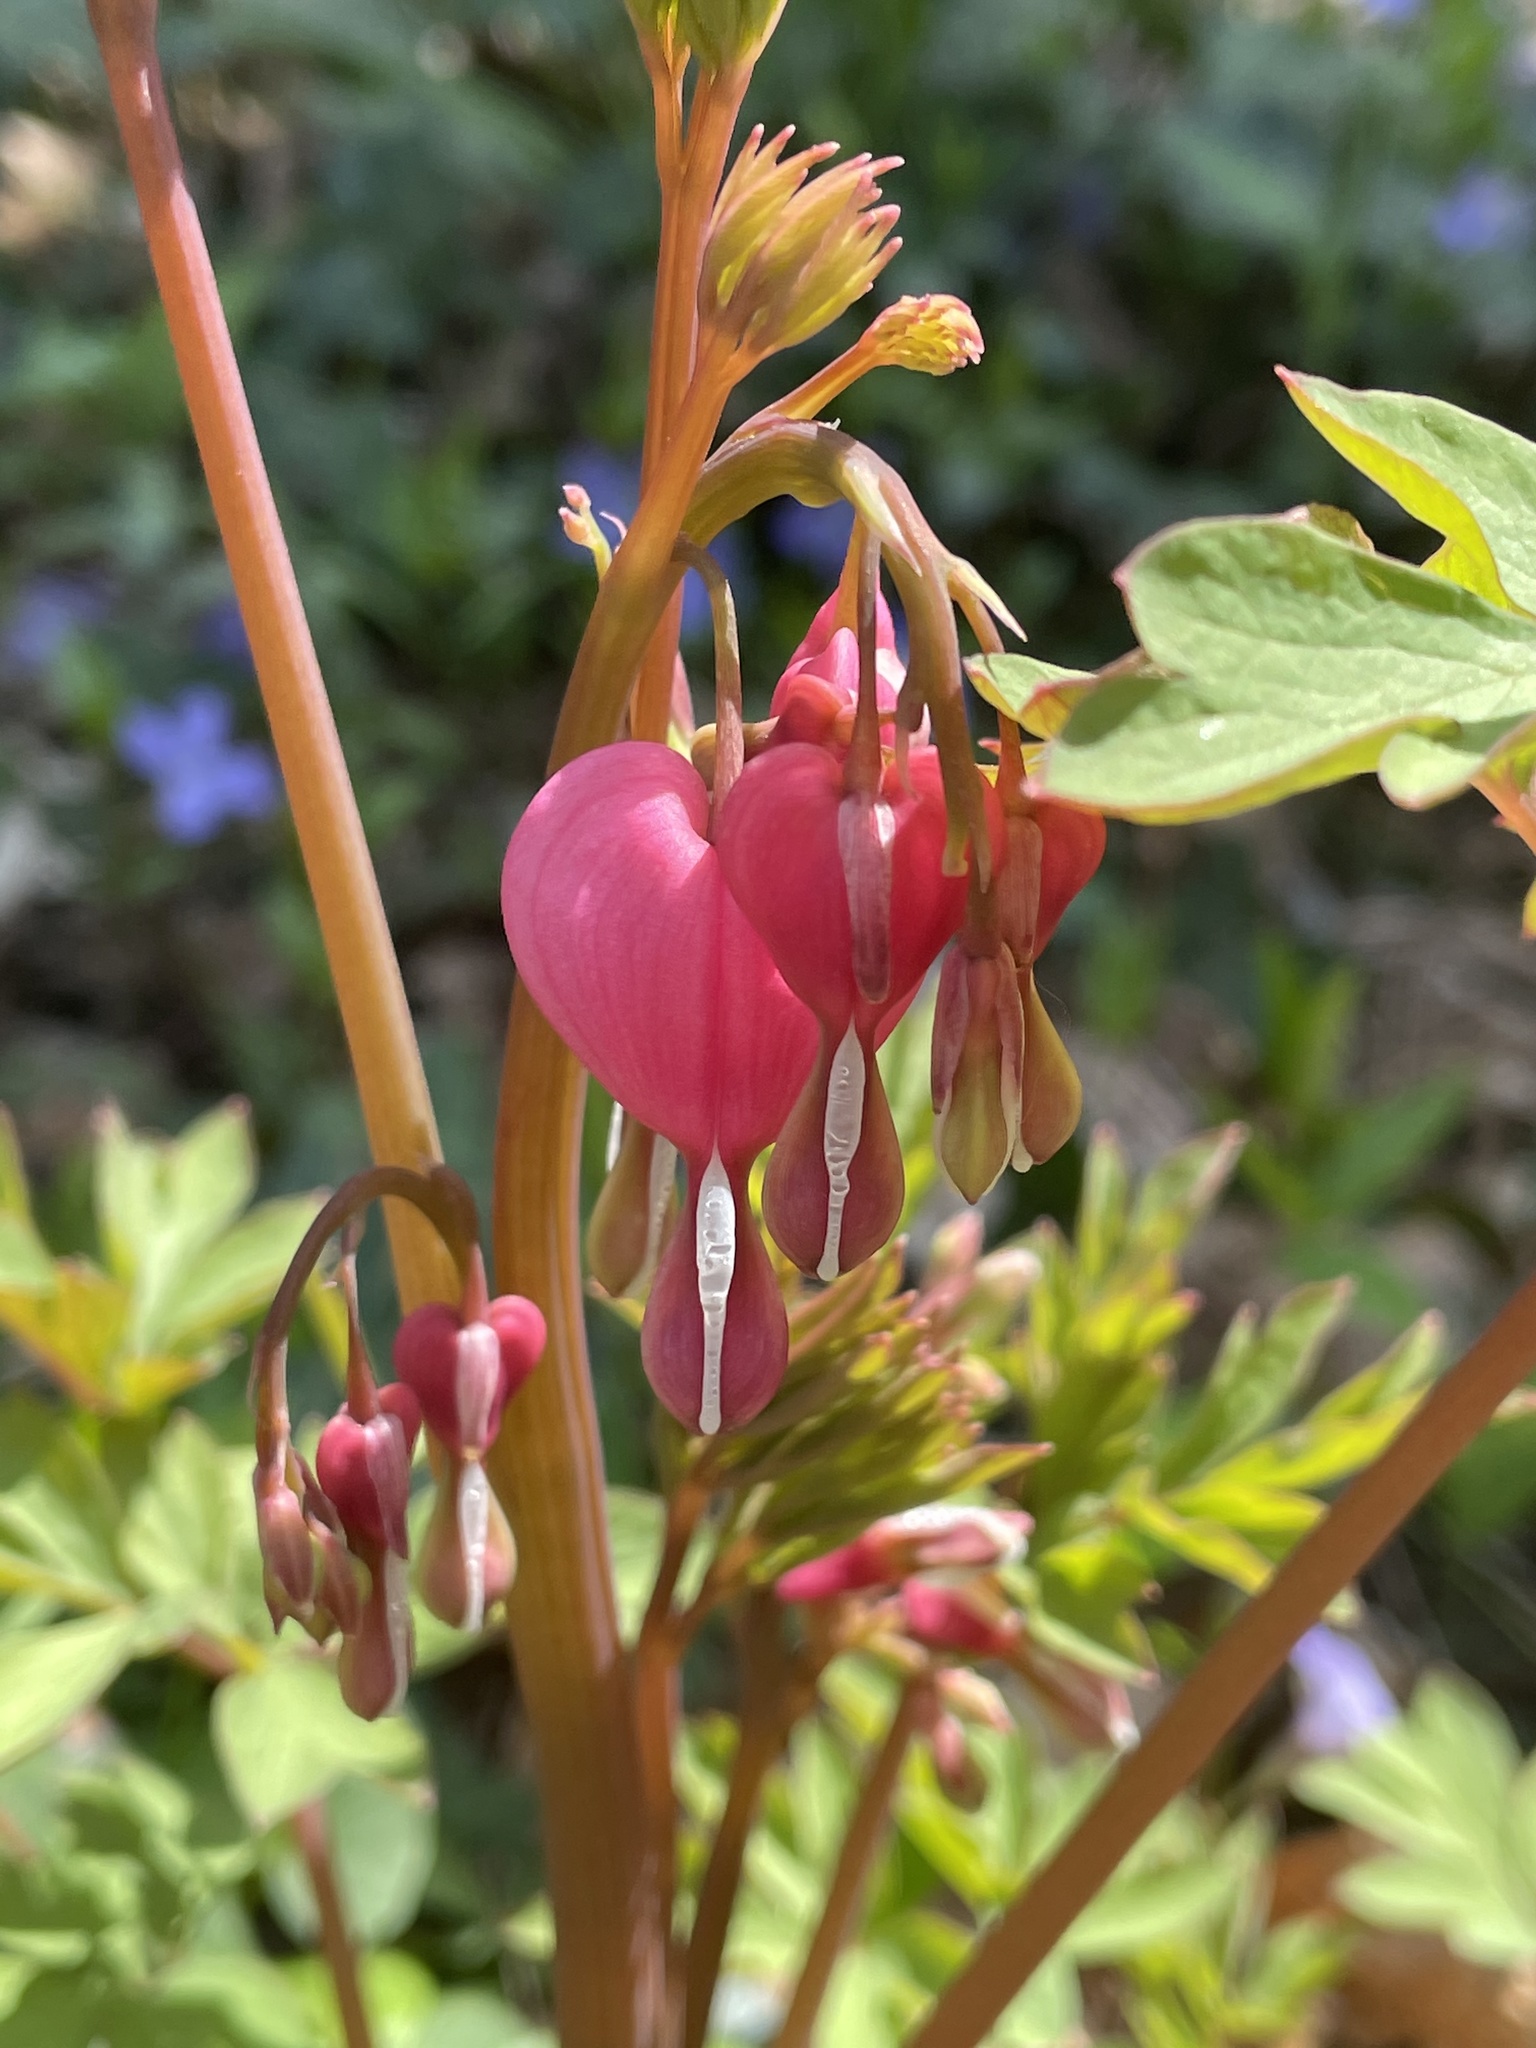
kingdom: Plantae
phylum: Tracheophyta
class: Magnoliopsida
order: Ranunculales
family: Papaveraceae
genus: Lamprocapnos
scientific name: Lamprocapnos spectabilis
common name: Asian bleeding-heart
